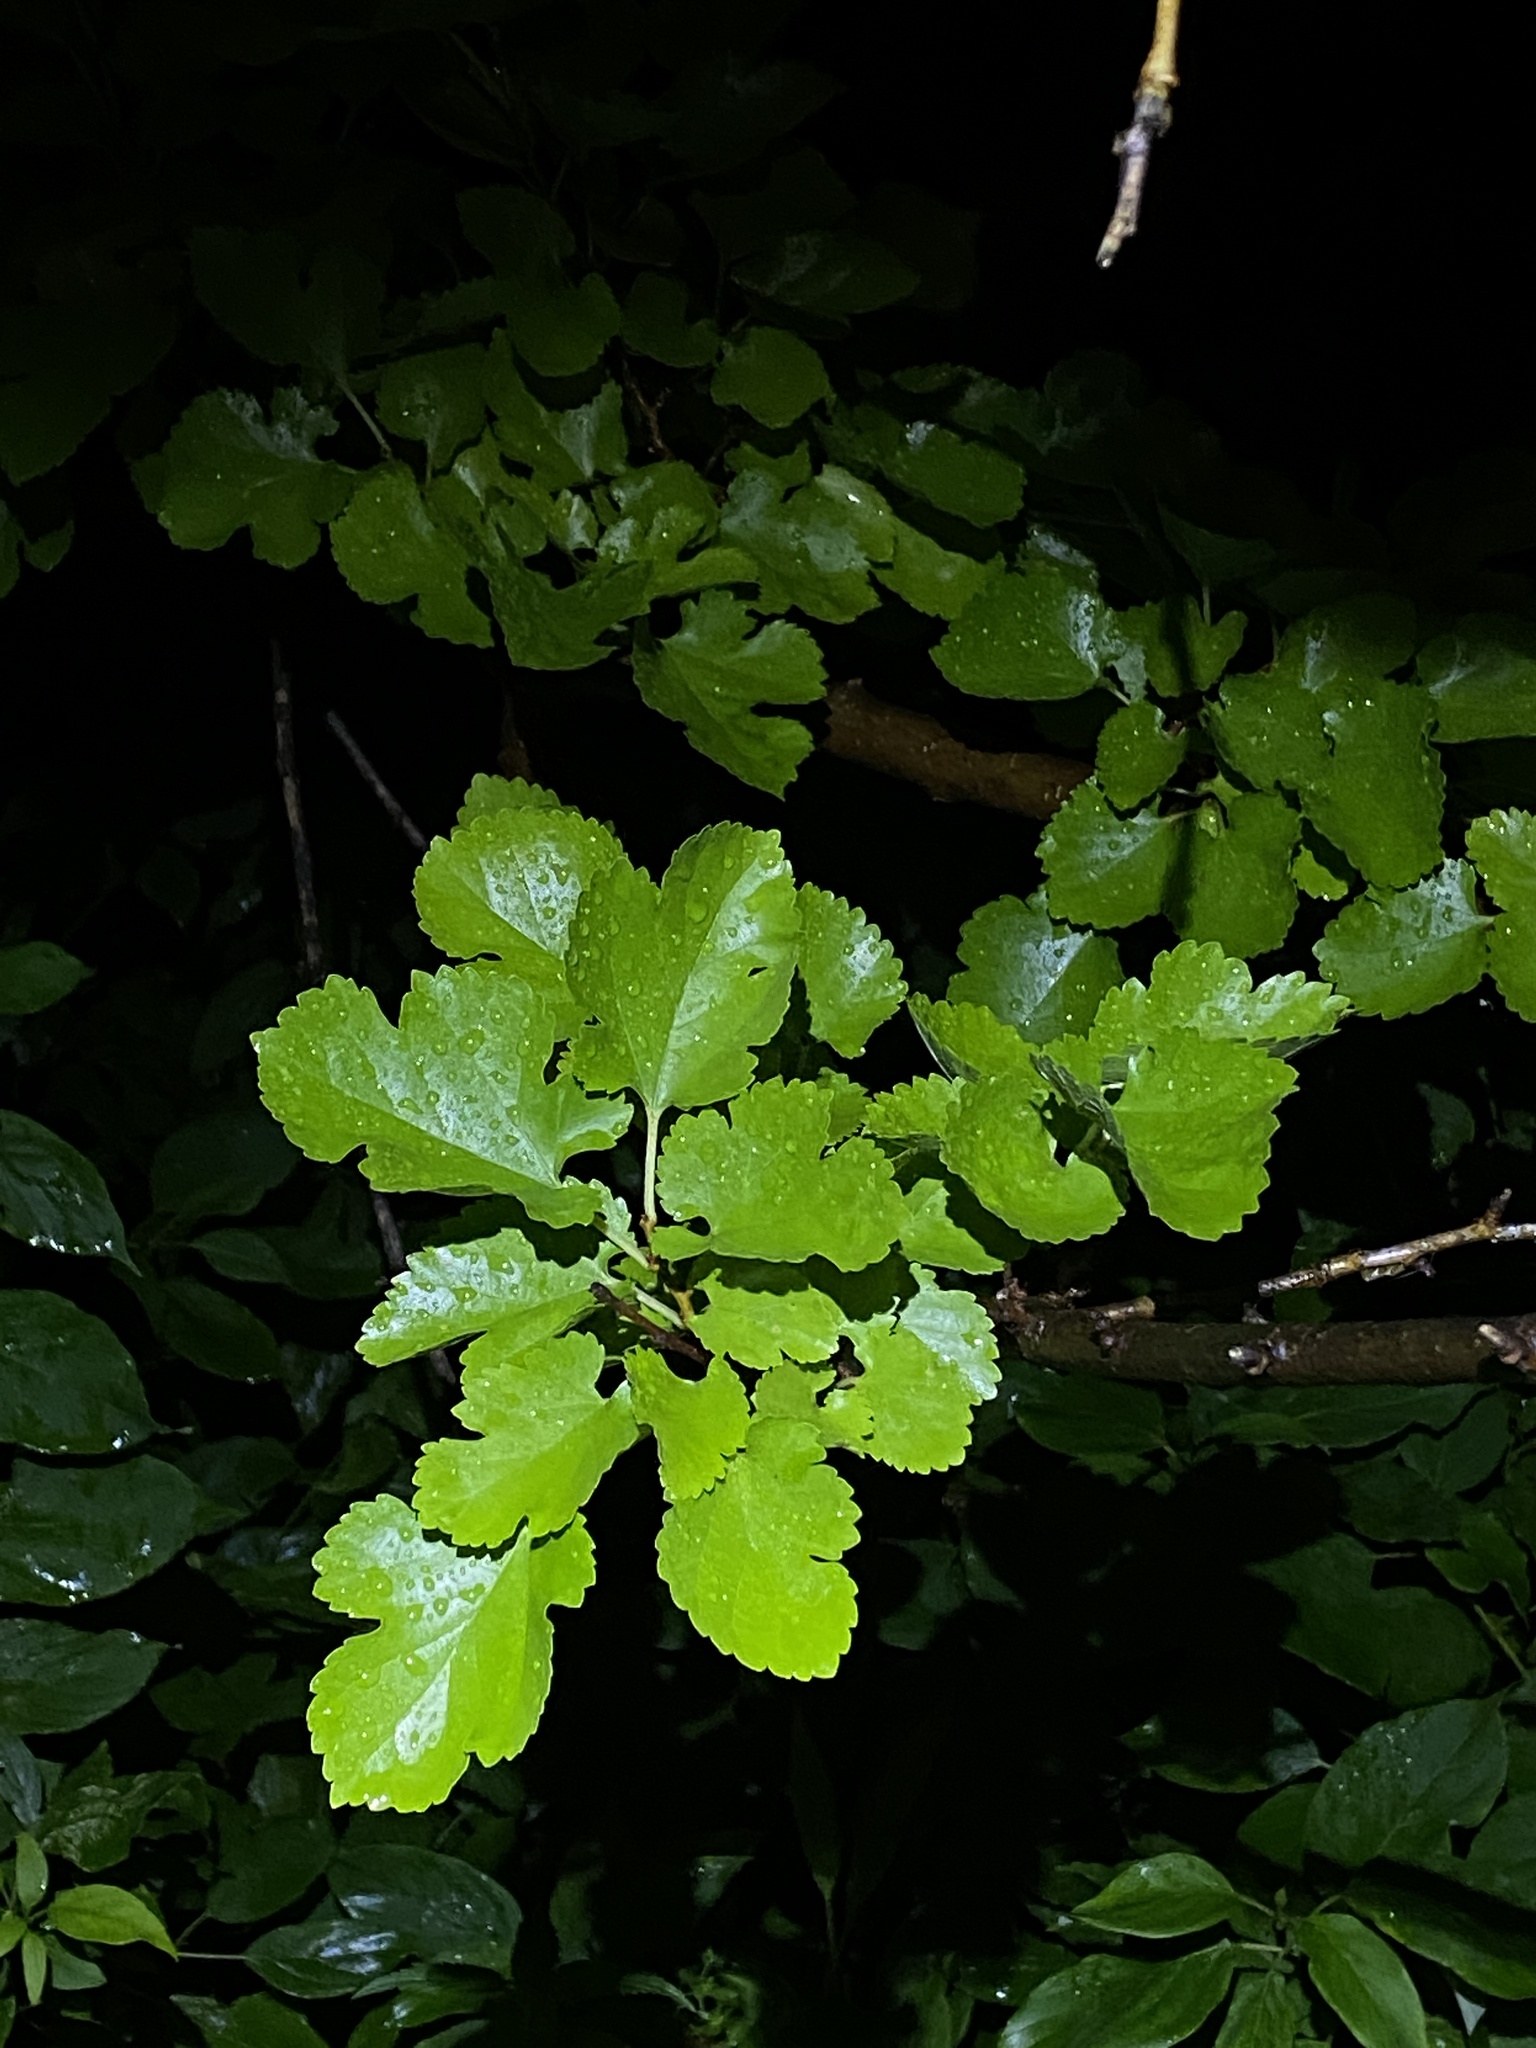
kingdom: Plantae
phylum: Tracheophyta
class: Magnoliopsida
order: Rosales
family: Moraceae
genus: Morus
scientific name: Morus alba
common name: White mulberry
